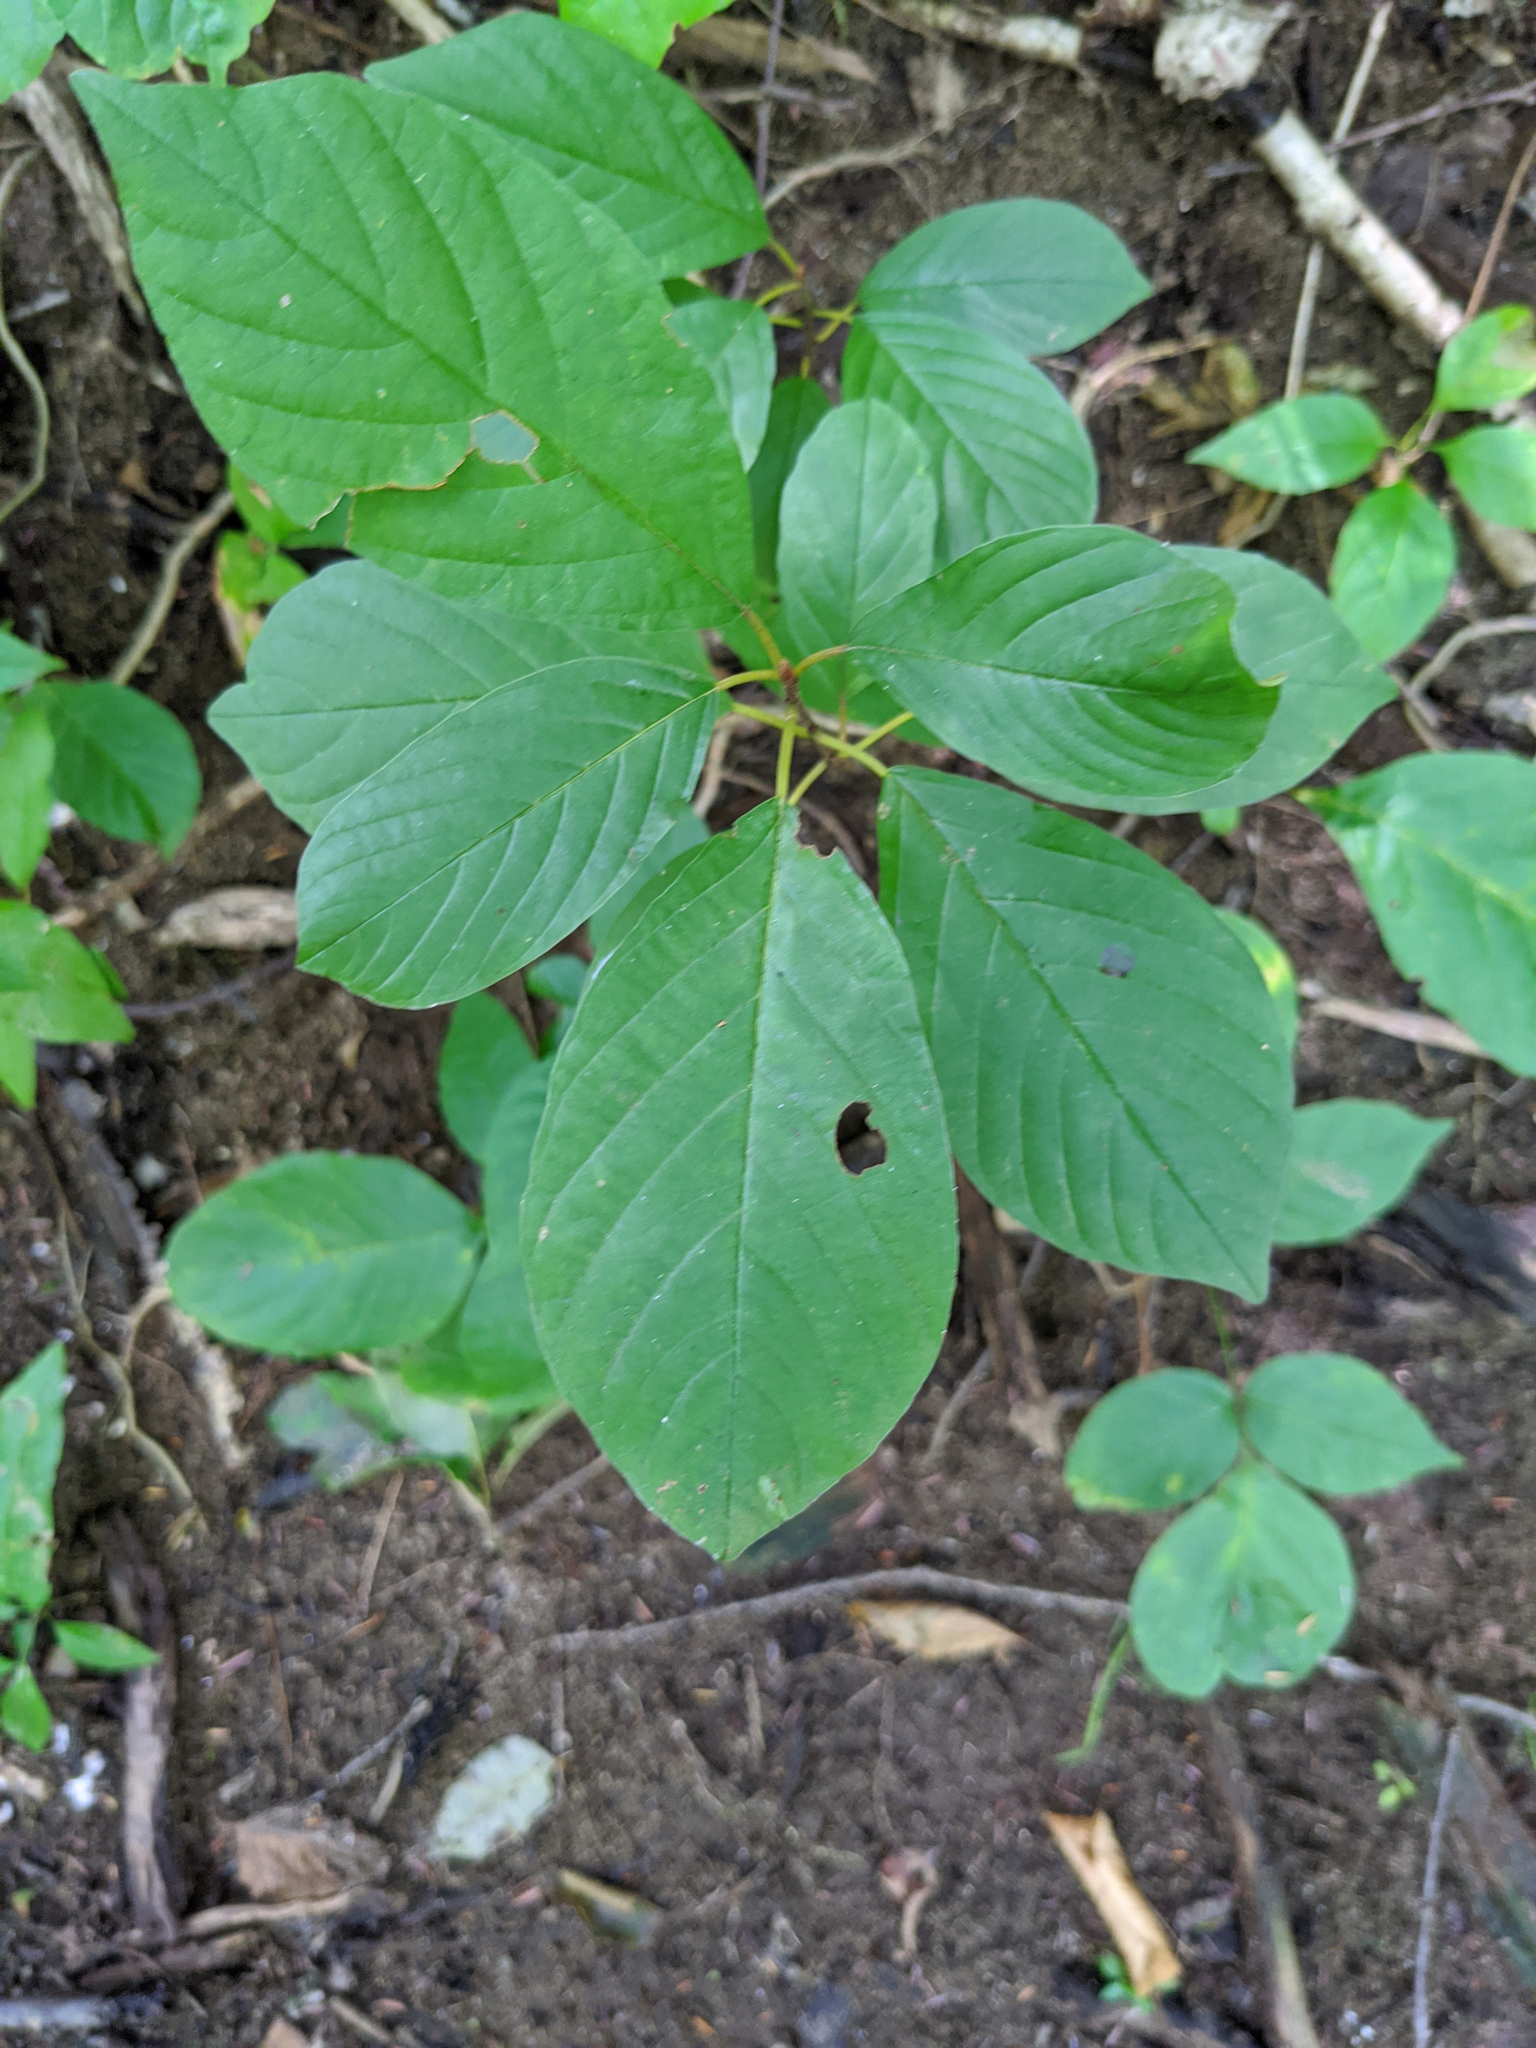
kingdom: Plantae
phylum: Tracheophyta
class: Magnoliopsida
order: Rosales
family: Rhamnaceae
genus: Frangula
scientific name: Frangula alnus
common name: Alder buckthorn
